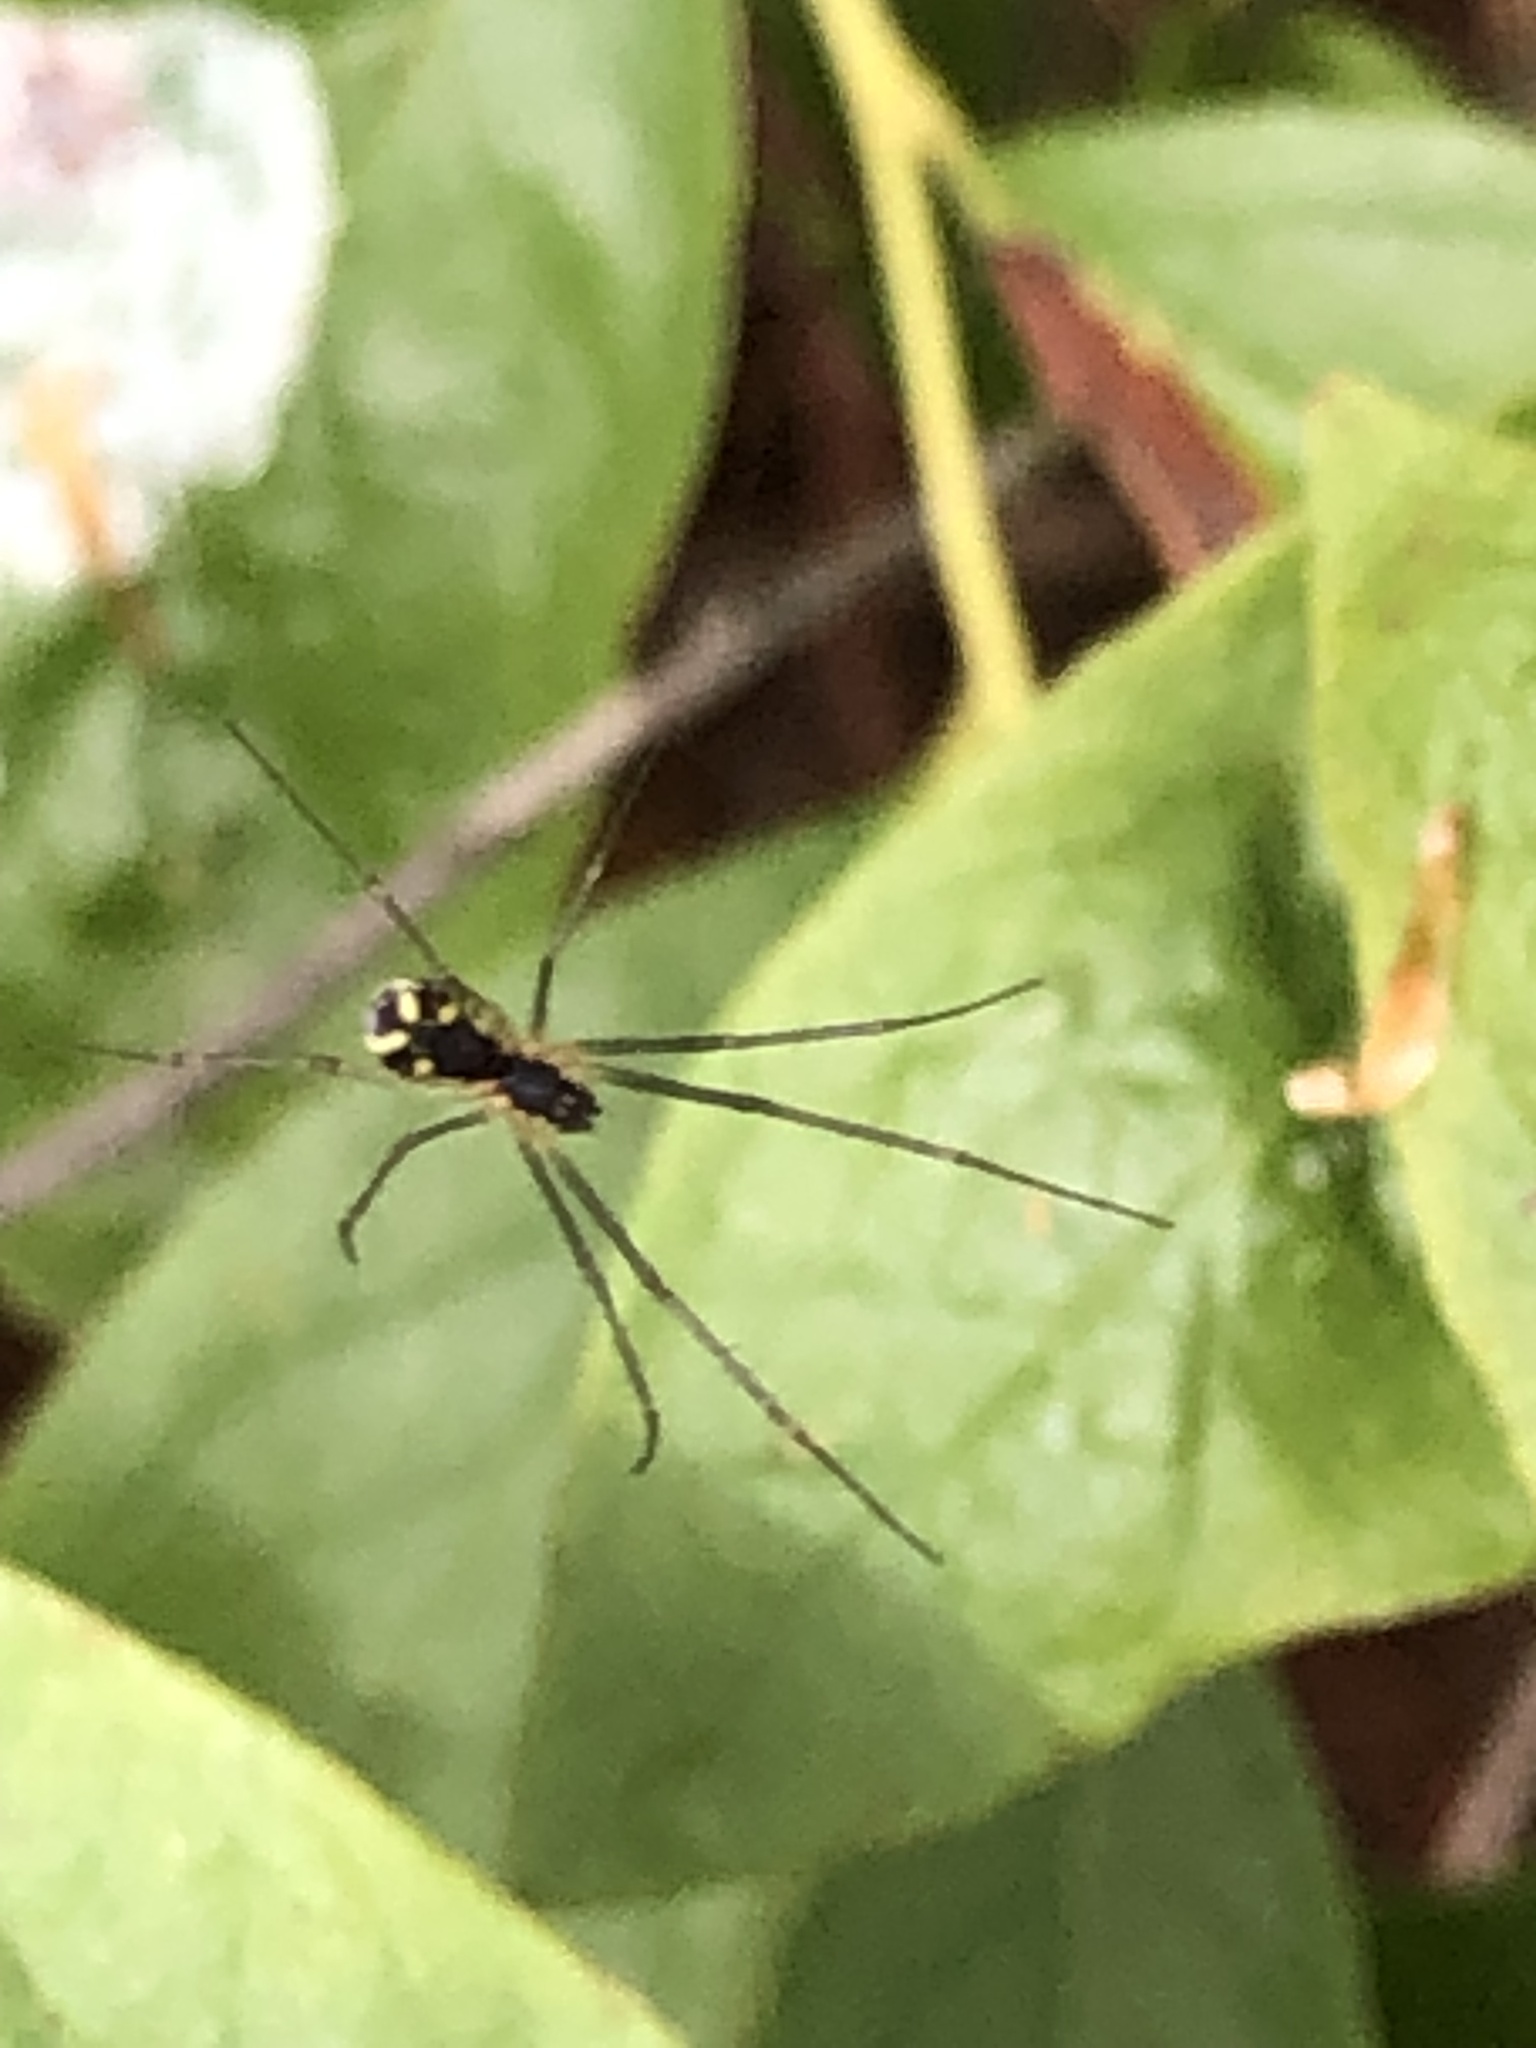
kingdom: Animalia
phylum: Arthropoda
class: Arachnida
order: Araneae
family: Linyphiidae
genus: Neriene
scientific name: Neriene radiata
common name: Filmy dome spider
